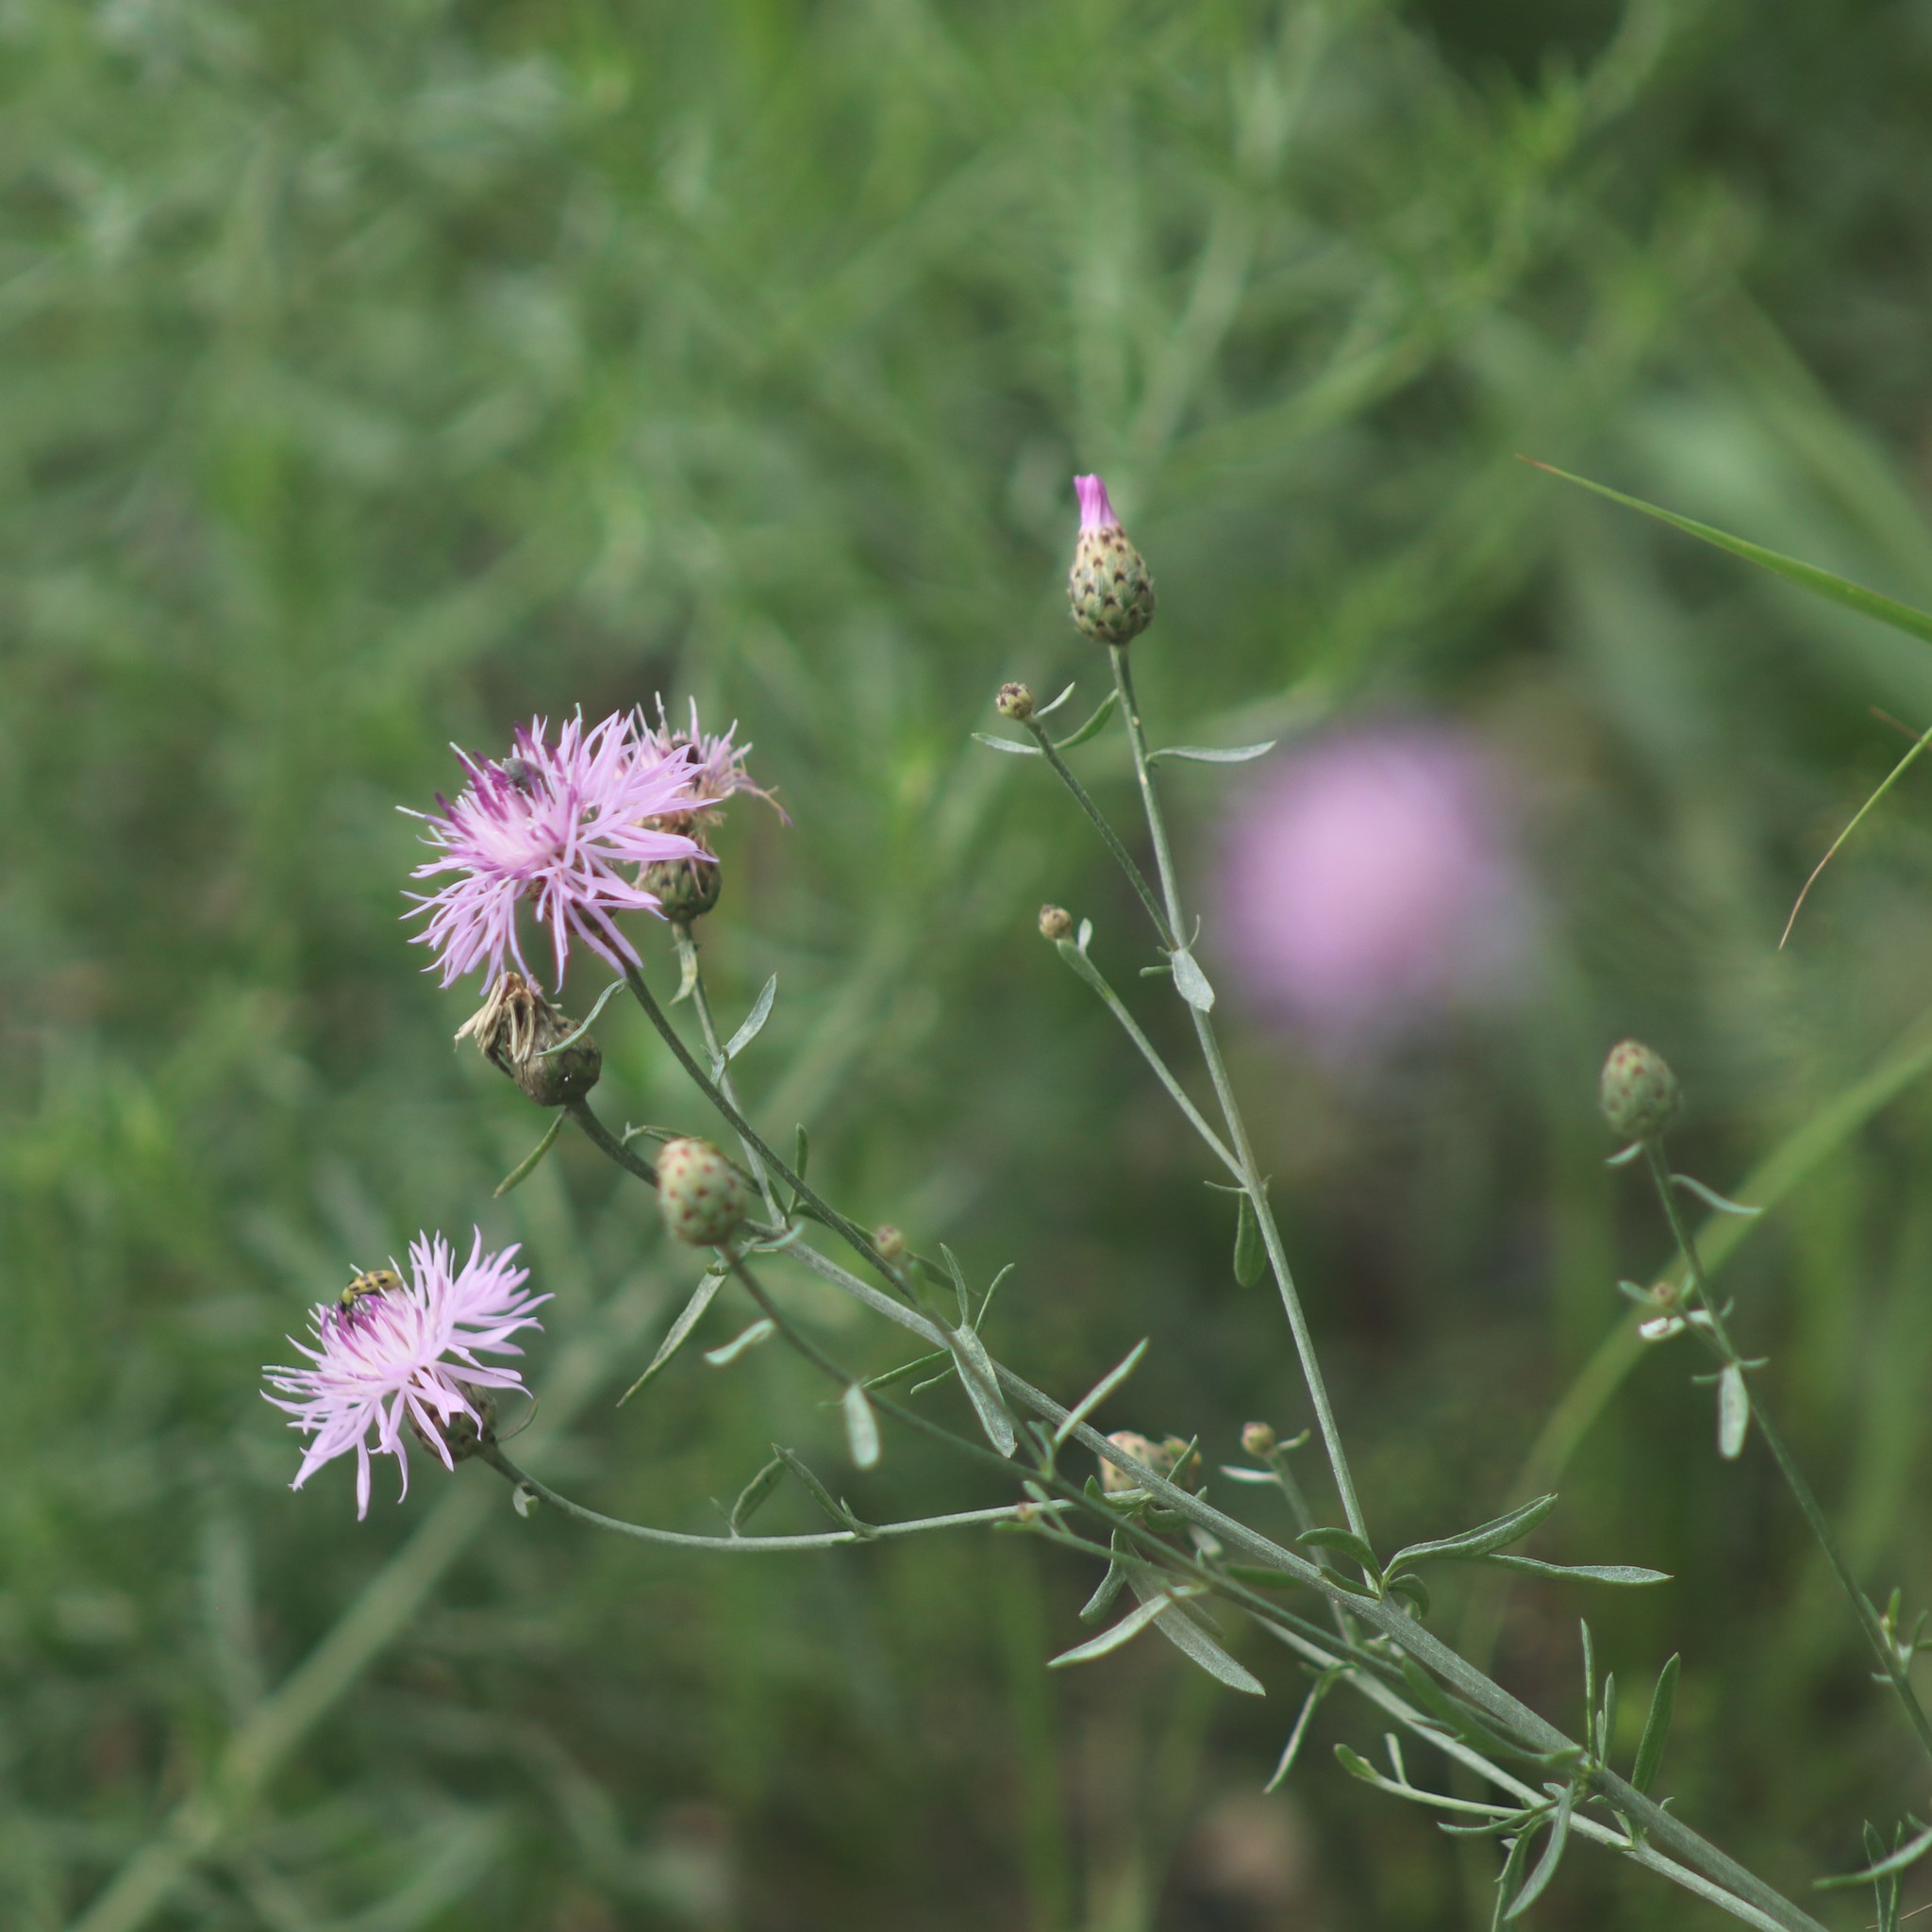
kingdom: Plantae
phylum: Tracheophyta
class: Magnoliopsida
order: Asterales
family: Asteraceae
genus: Centaurea
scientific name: Centaurea stoebe
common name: Spotted knapweed
